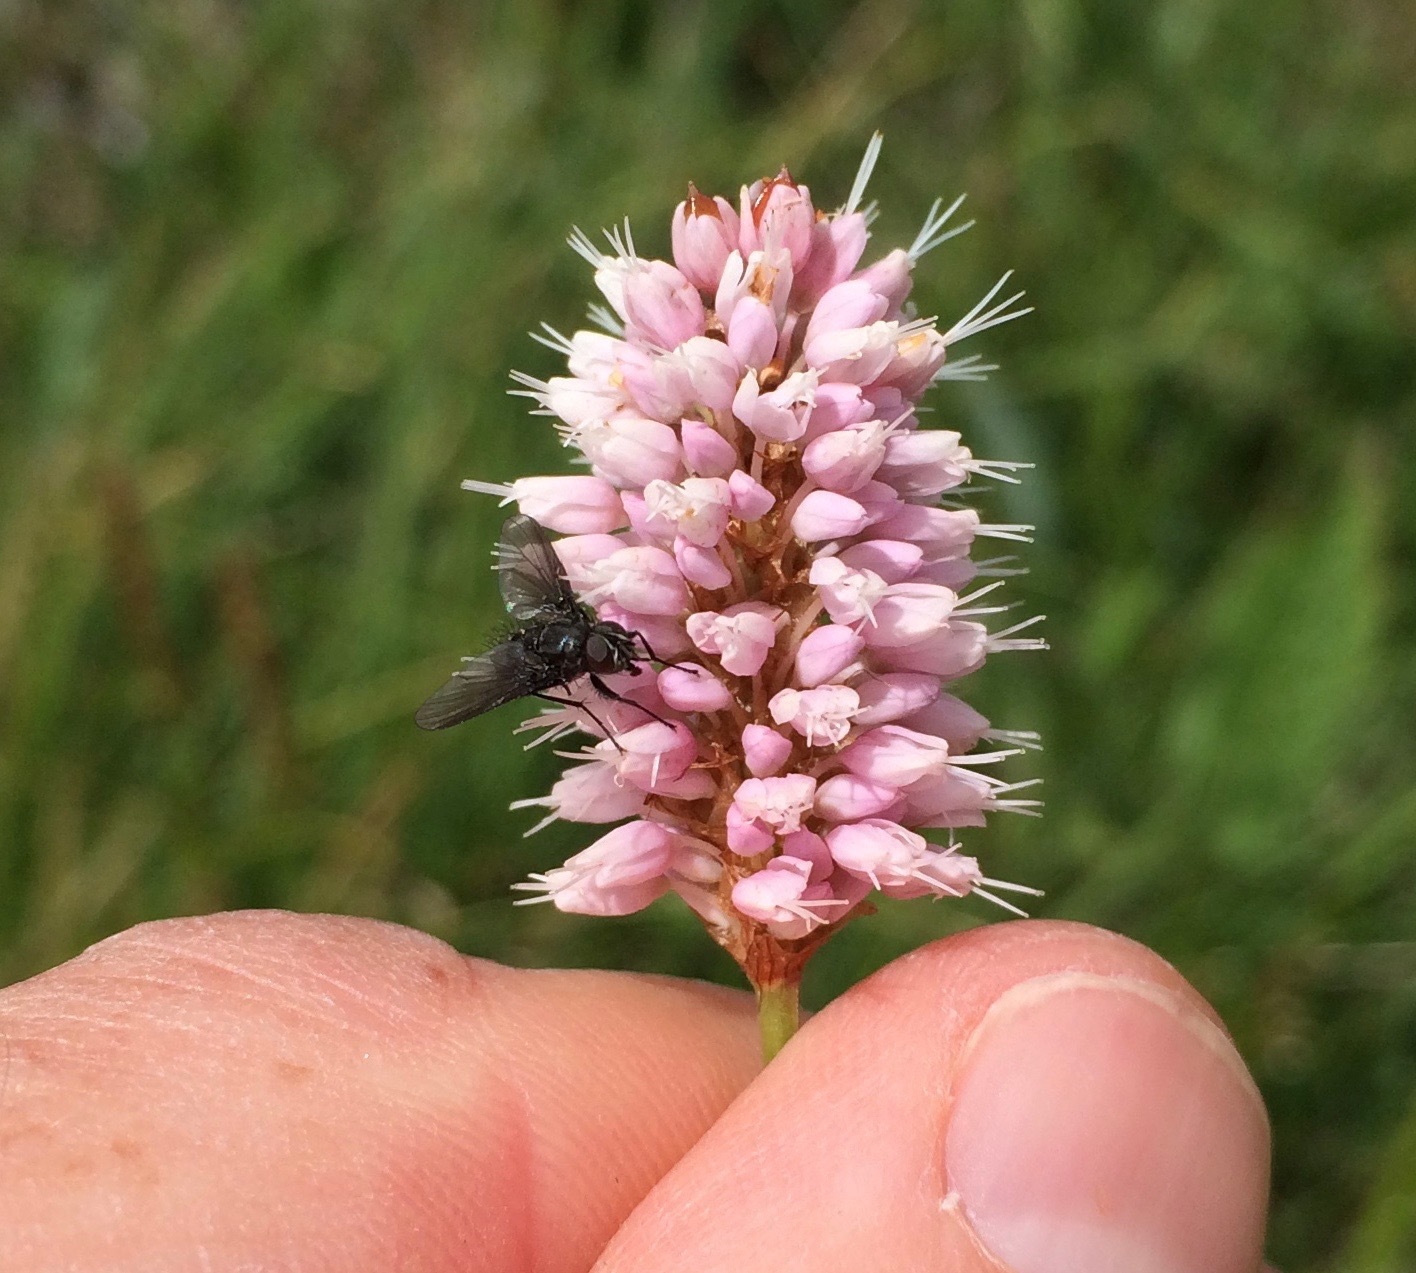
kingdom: Plantae
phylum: Tracheophyta
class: Magnoliopsida
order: Caryophyllales
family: Polygonaceae
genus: Bistorta
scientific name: Bistorta officinalis
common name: Common bistort
